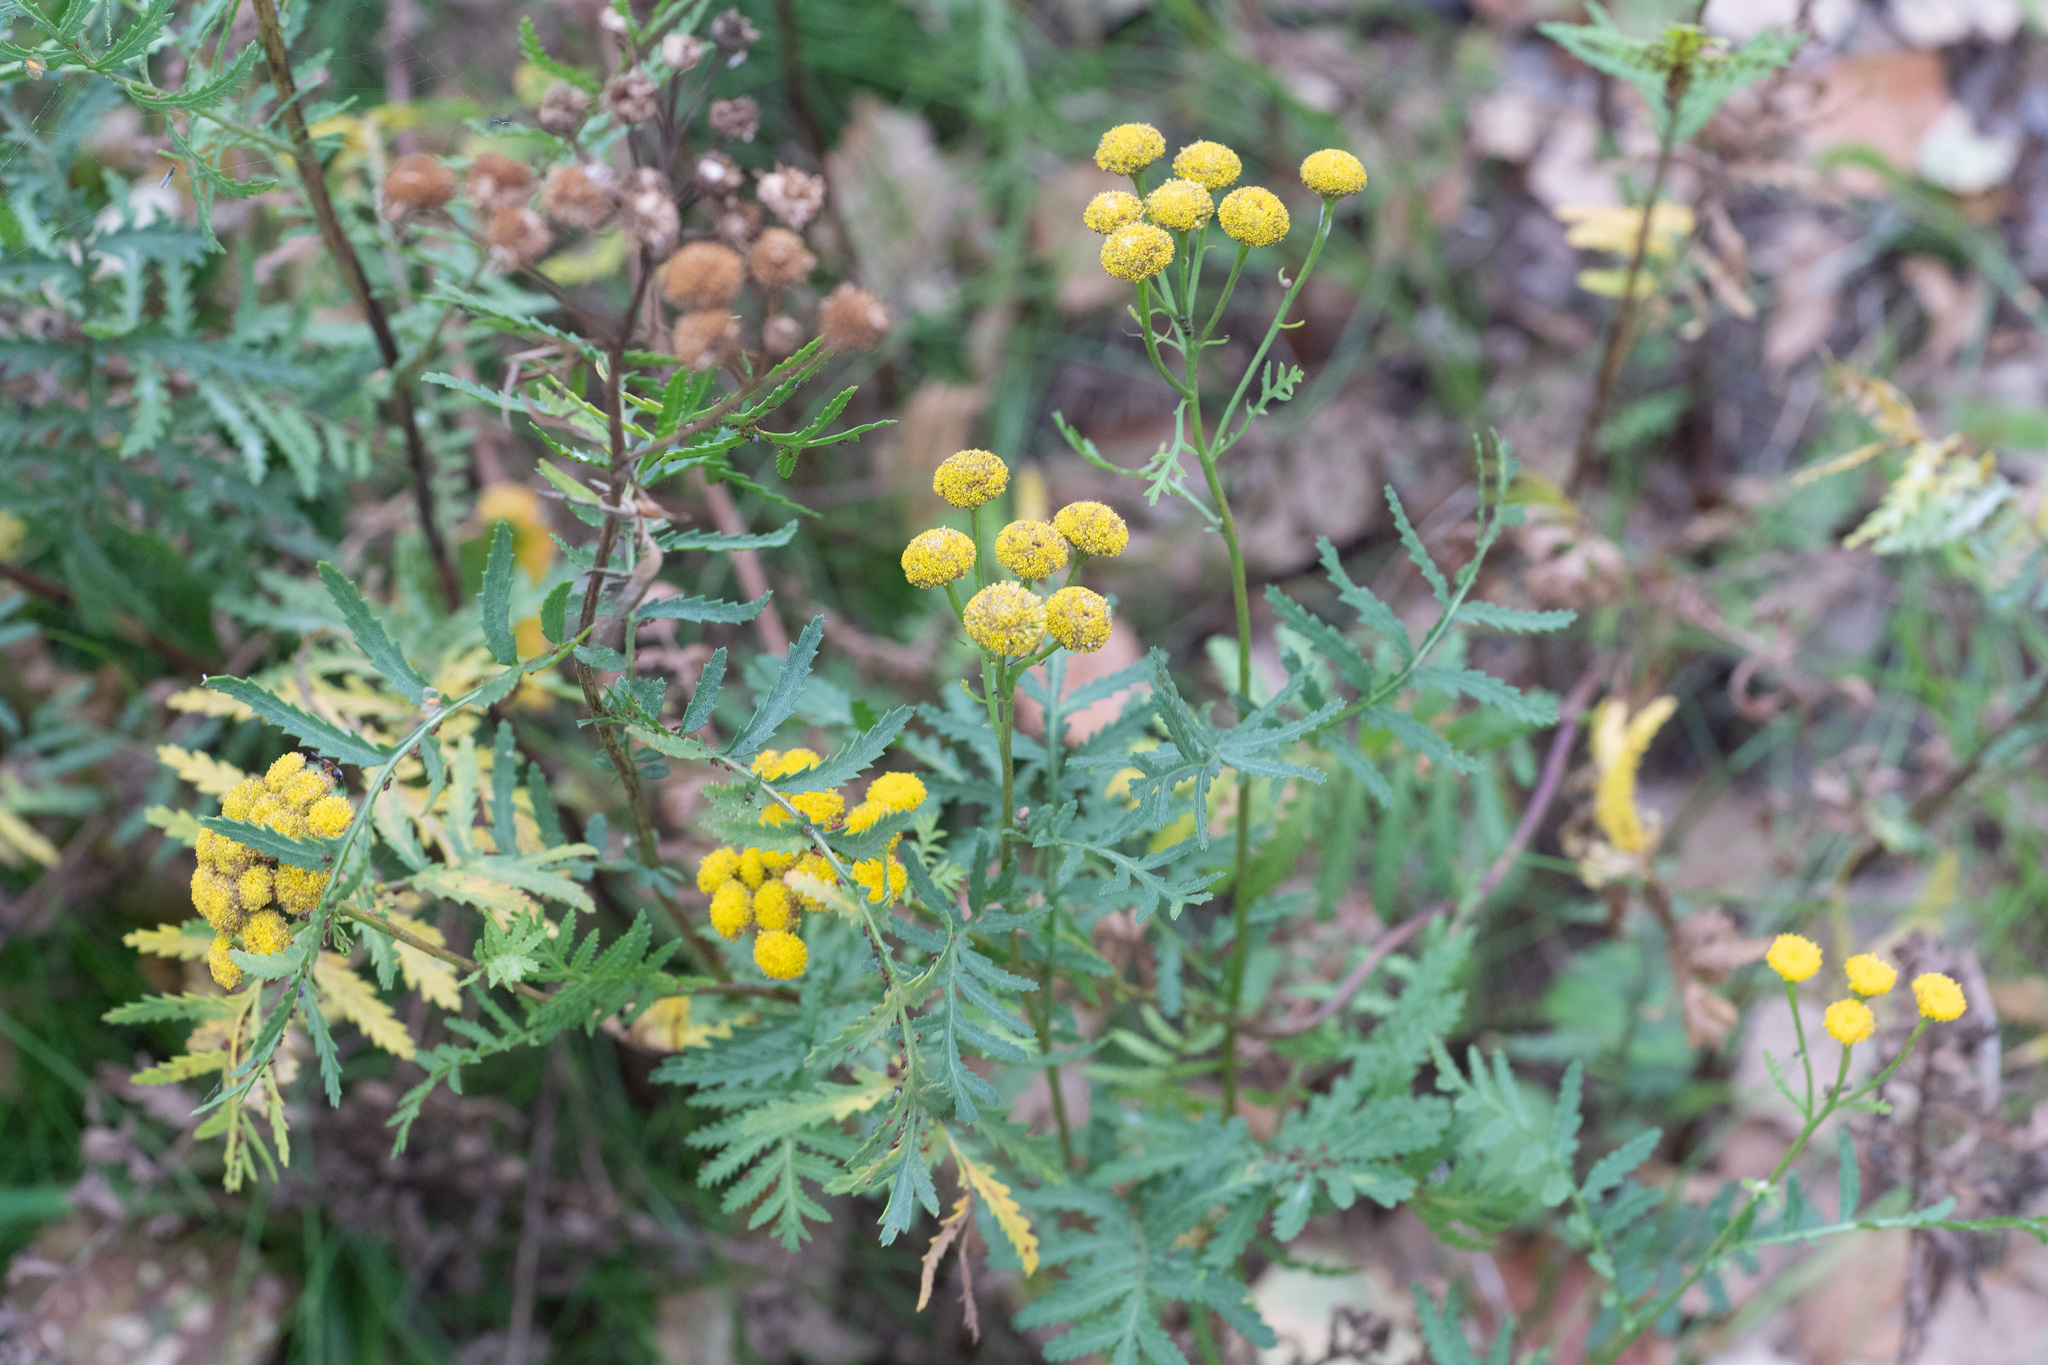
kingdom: Plantae
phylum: Tracheophyta
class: Magnoliopsida
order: Asterales
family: Asteraceae
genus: Tanacetum
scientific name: Tanacetum vulgare
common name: Common tansy
